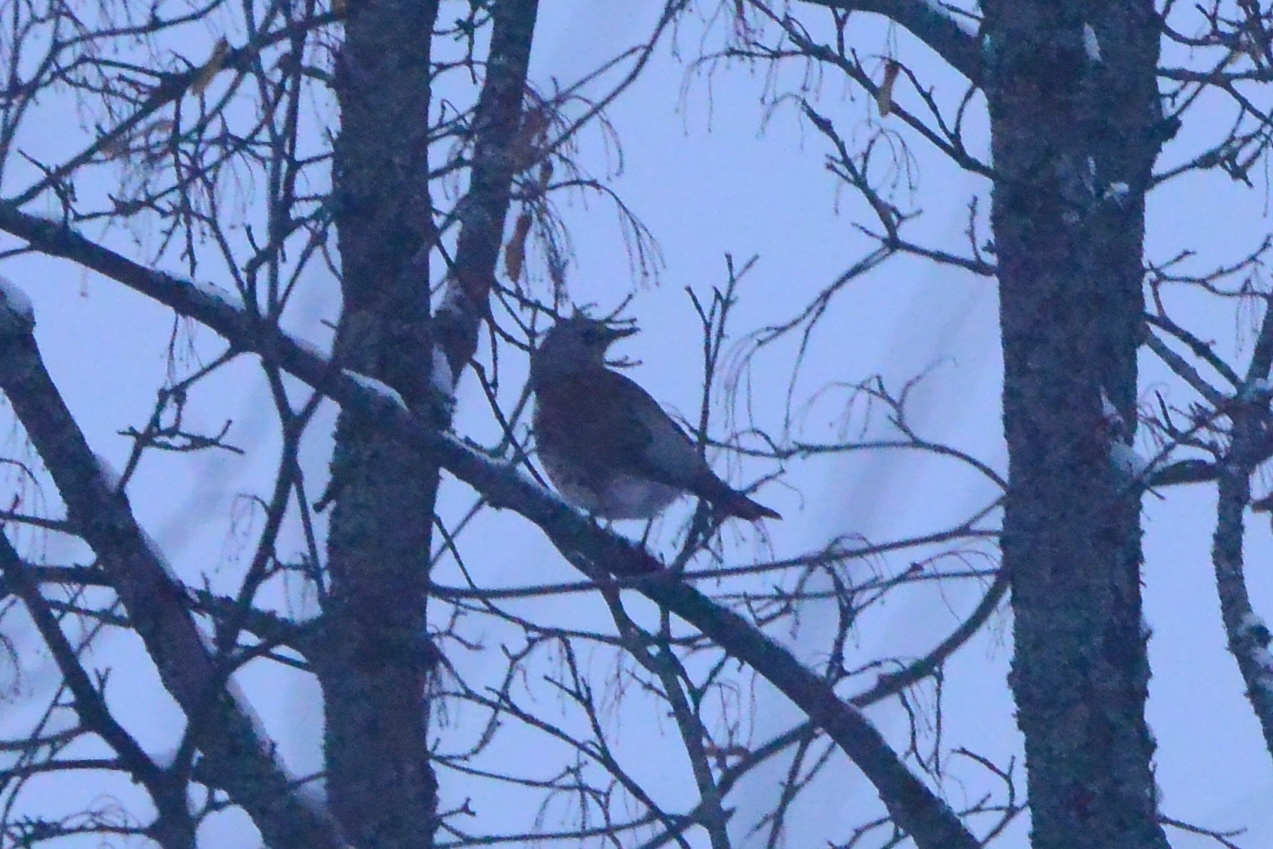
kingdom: Animalia
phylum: Chordata
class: Aves
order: Passeriformes
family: Turdidae
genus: Turdus
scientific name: Turdus pilaris
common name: Fieldfare
